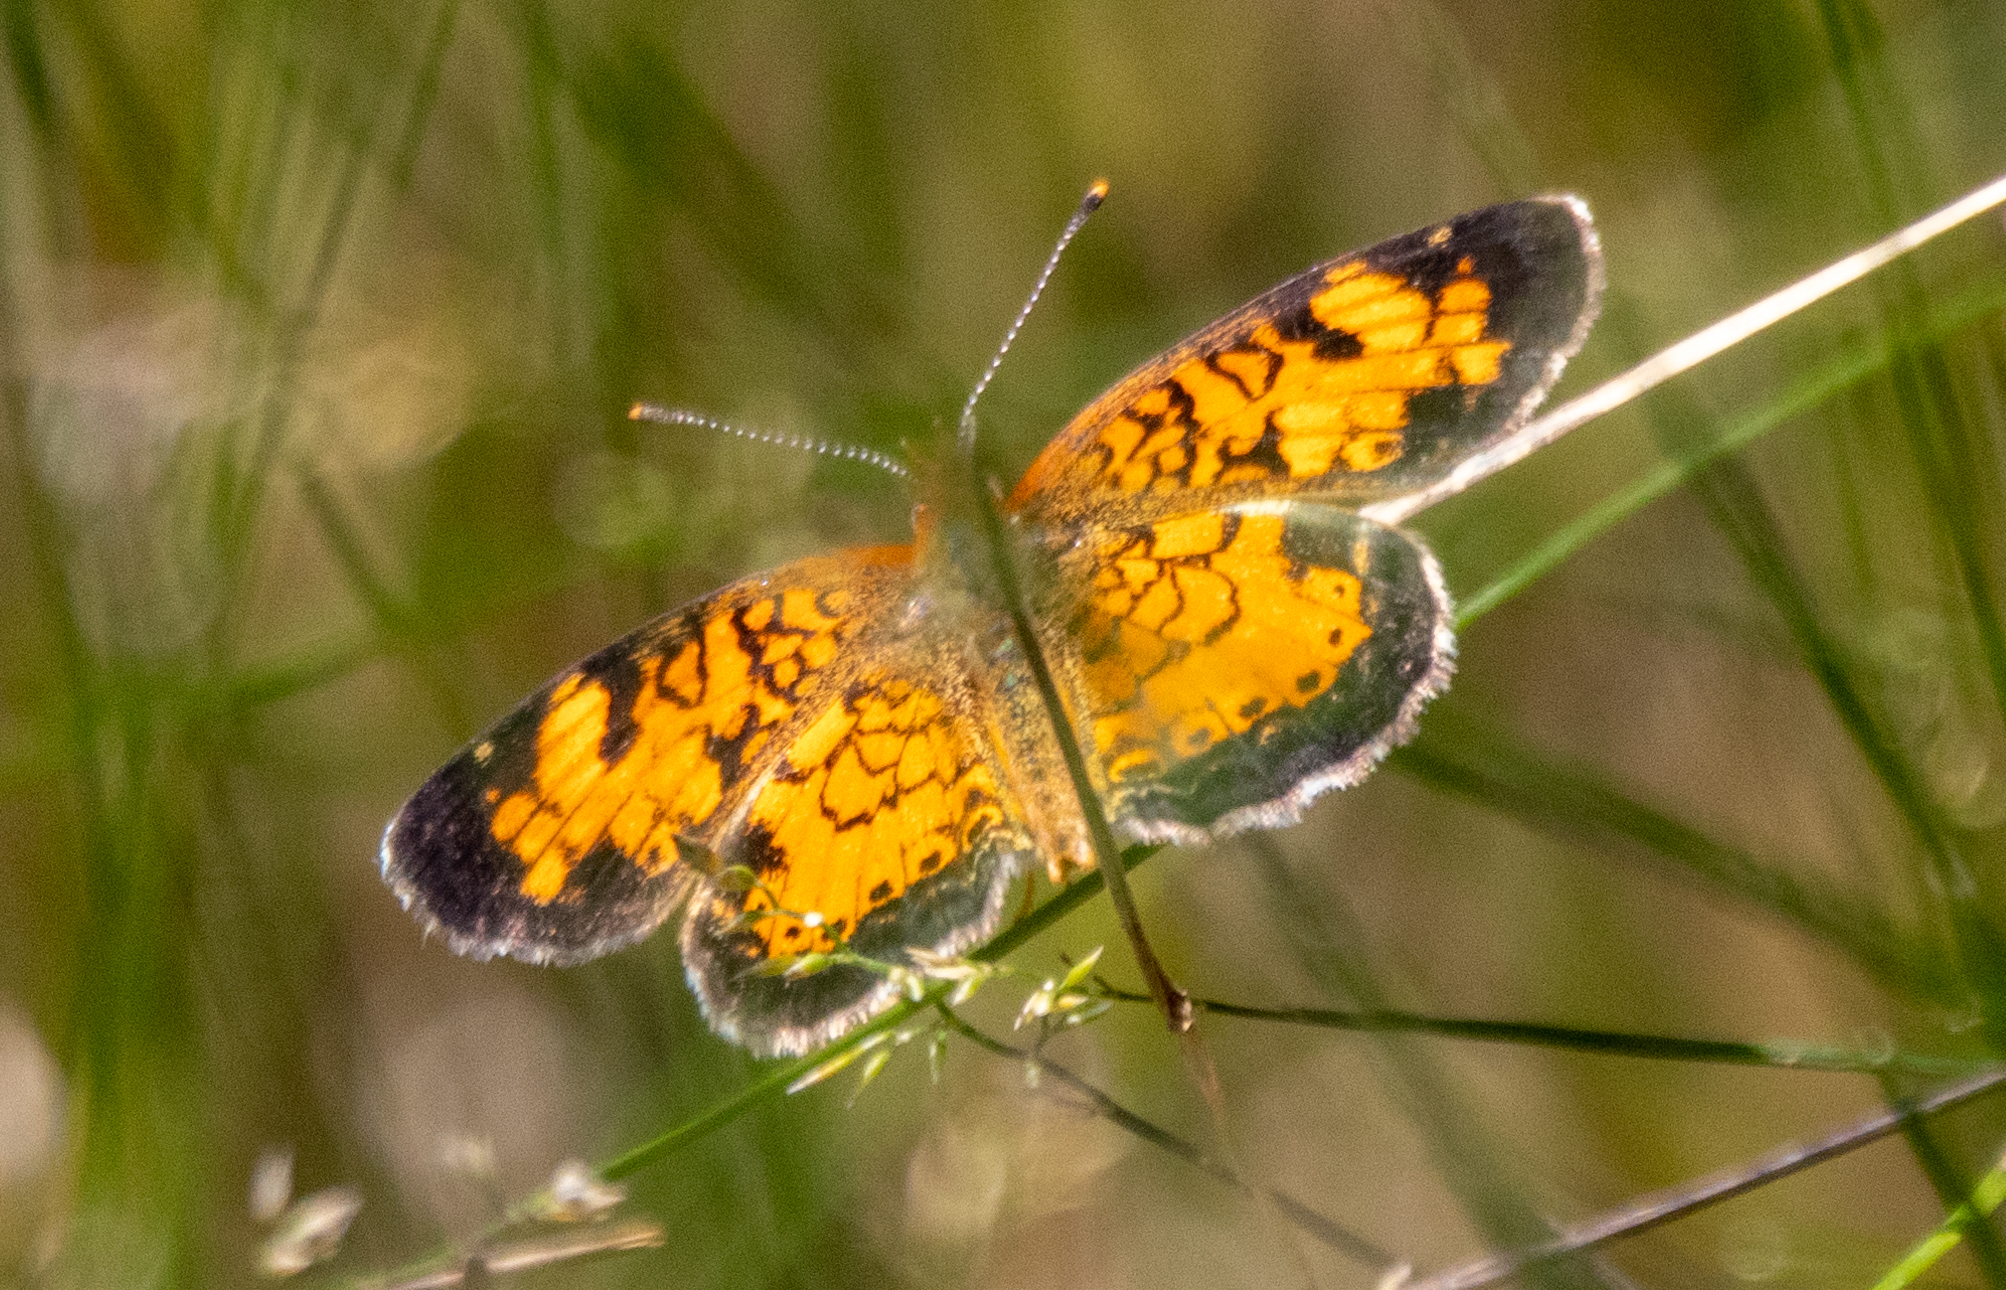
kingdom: Animalia
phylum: Arthropoda
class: Insecta
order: Lepidoptera
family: Nymphalidae
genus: Phyciodes
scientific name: Phyciodes tharos
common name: Pearl crescent
